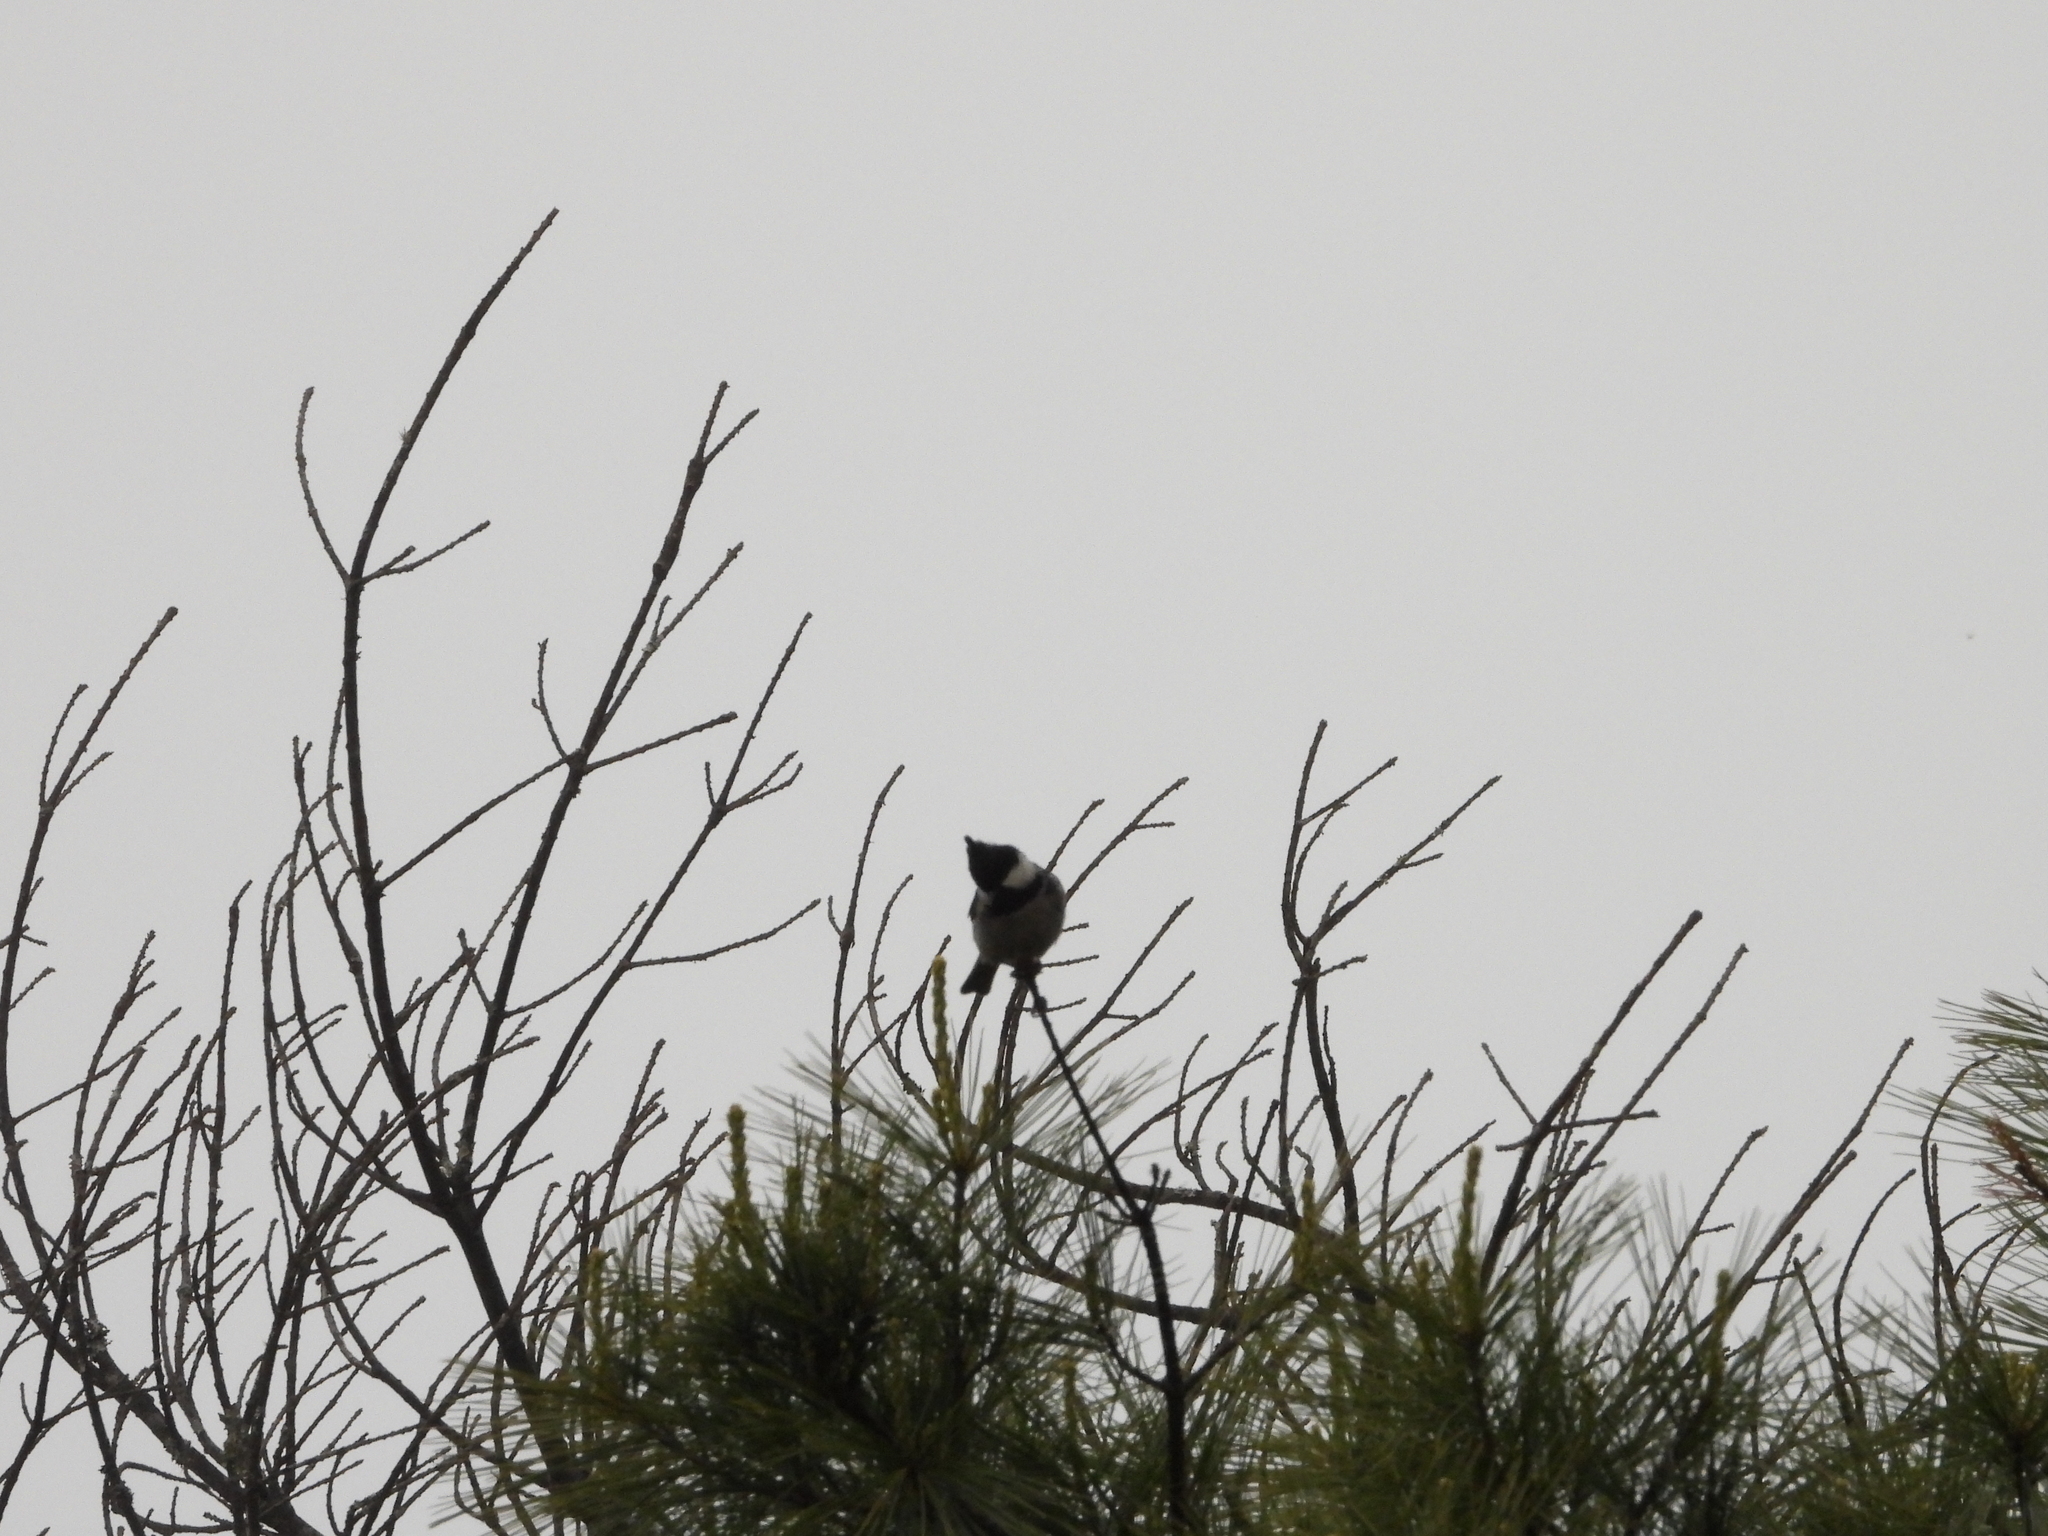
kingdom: Animalia
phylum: Chordata
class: Aves
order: Passeriformes
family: Paridae
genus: Periparus
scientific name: Periparus ater
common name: Coal tit
